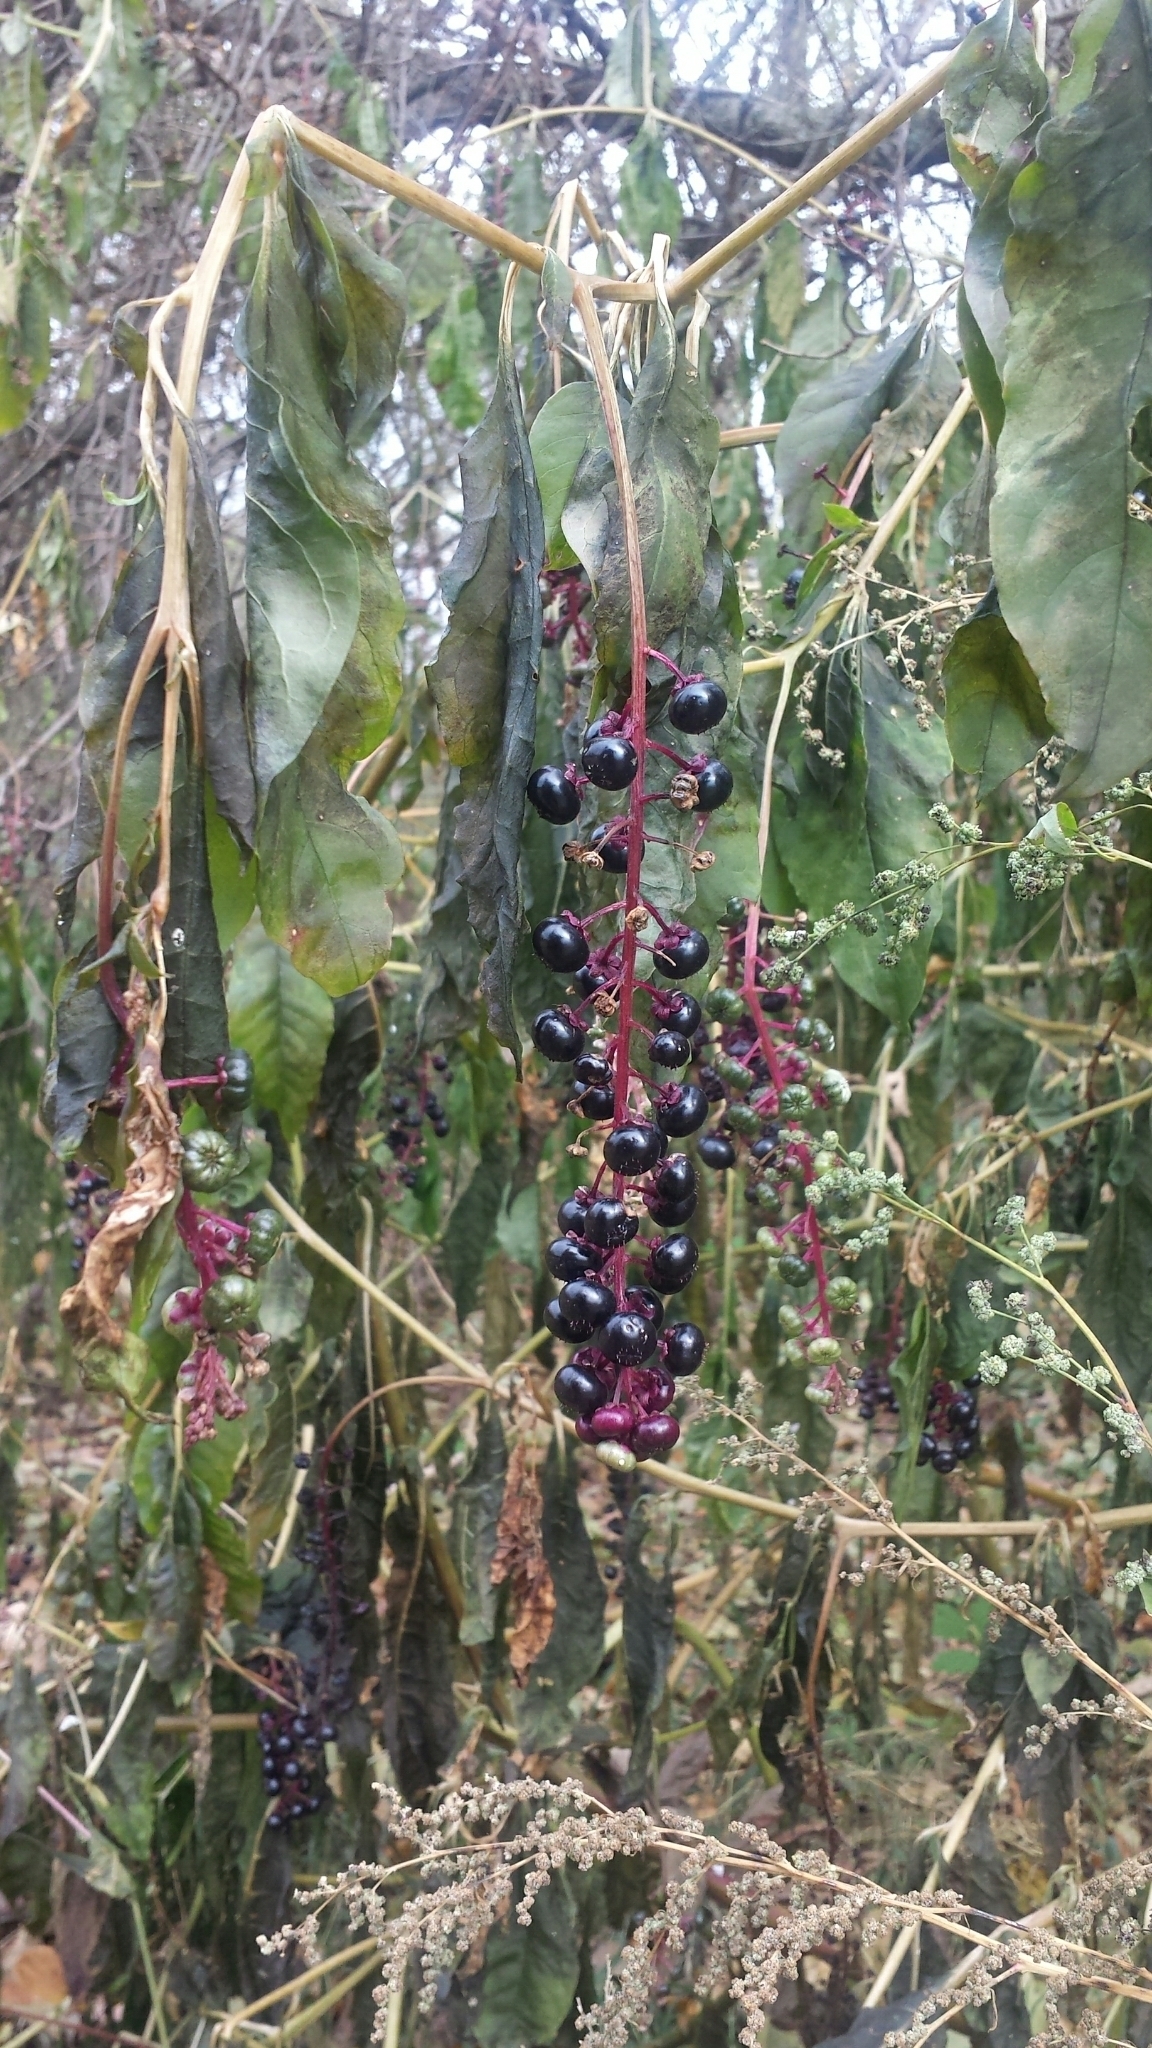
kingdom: Plantae
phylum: Tracheophyta
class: Magnoliopsida
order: Caryophyllales
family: Phytolaccaceae
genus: Phytolacca
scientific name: Phytolacca americana
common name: American pokeweed
